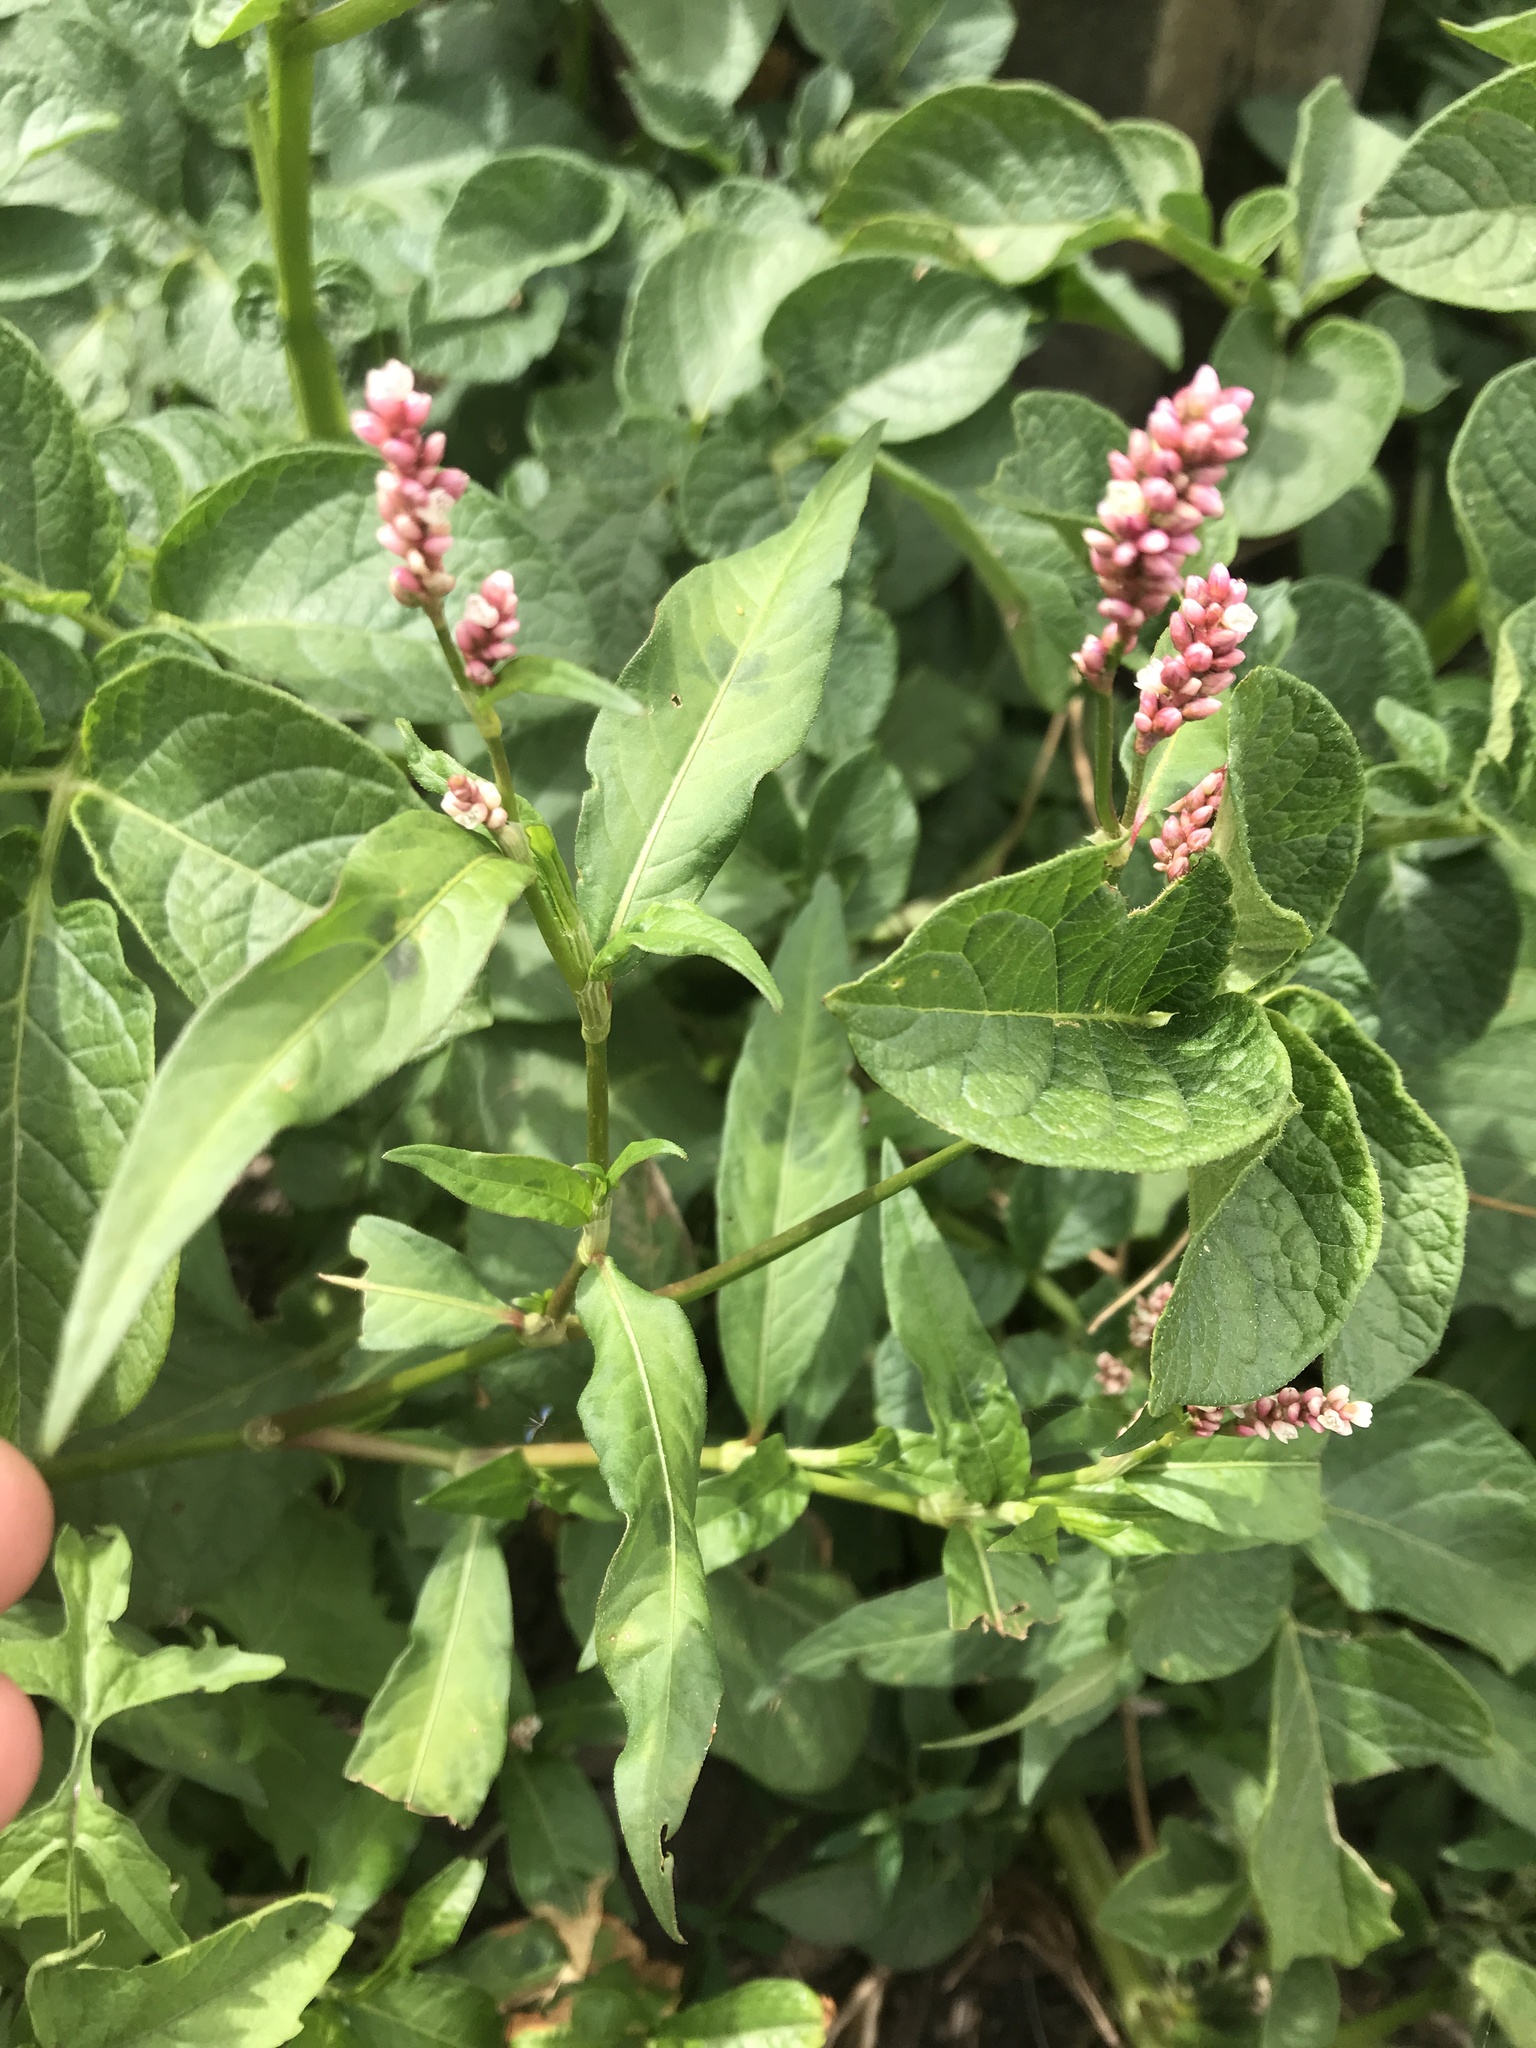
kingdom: Plantae
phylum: Tracheophyta
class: Magnoliopsida
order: Caryophyllales
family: Polygonaceae
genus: Persicaria
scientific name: Persicaria maculosa
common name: Redshank
